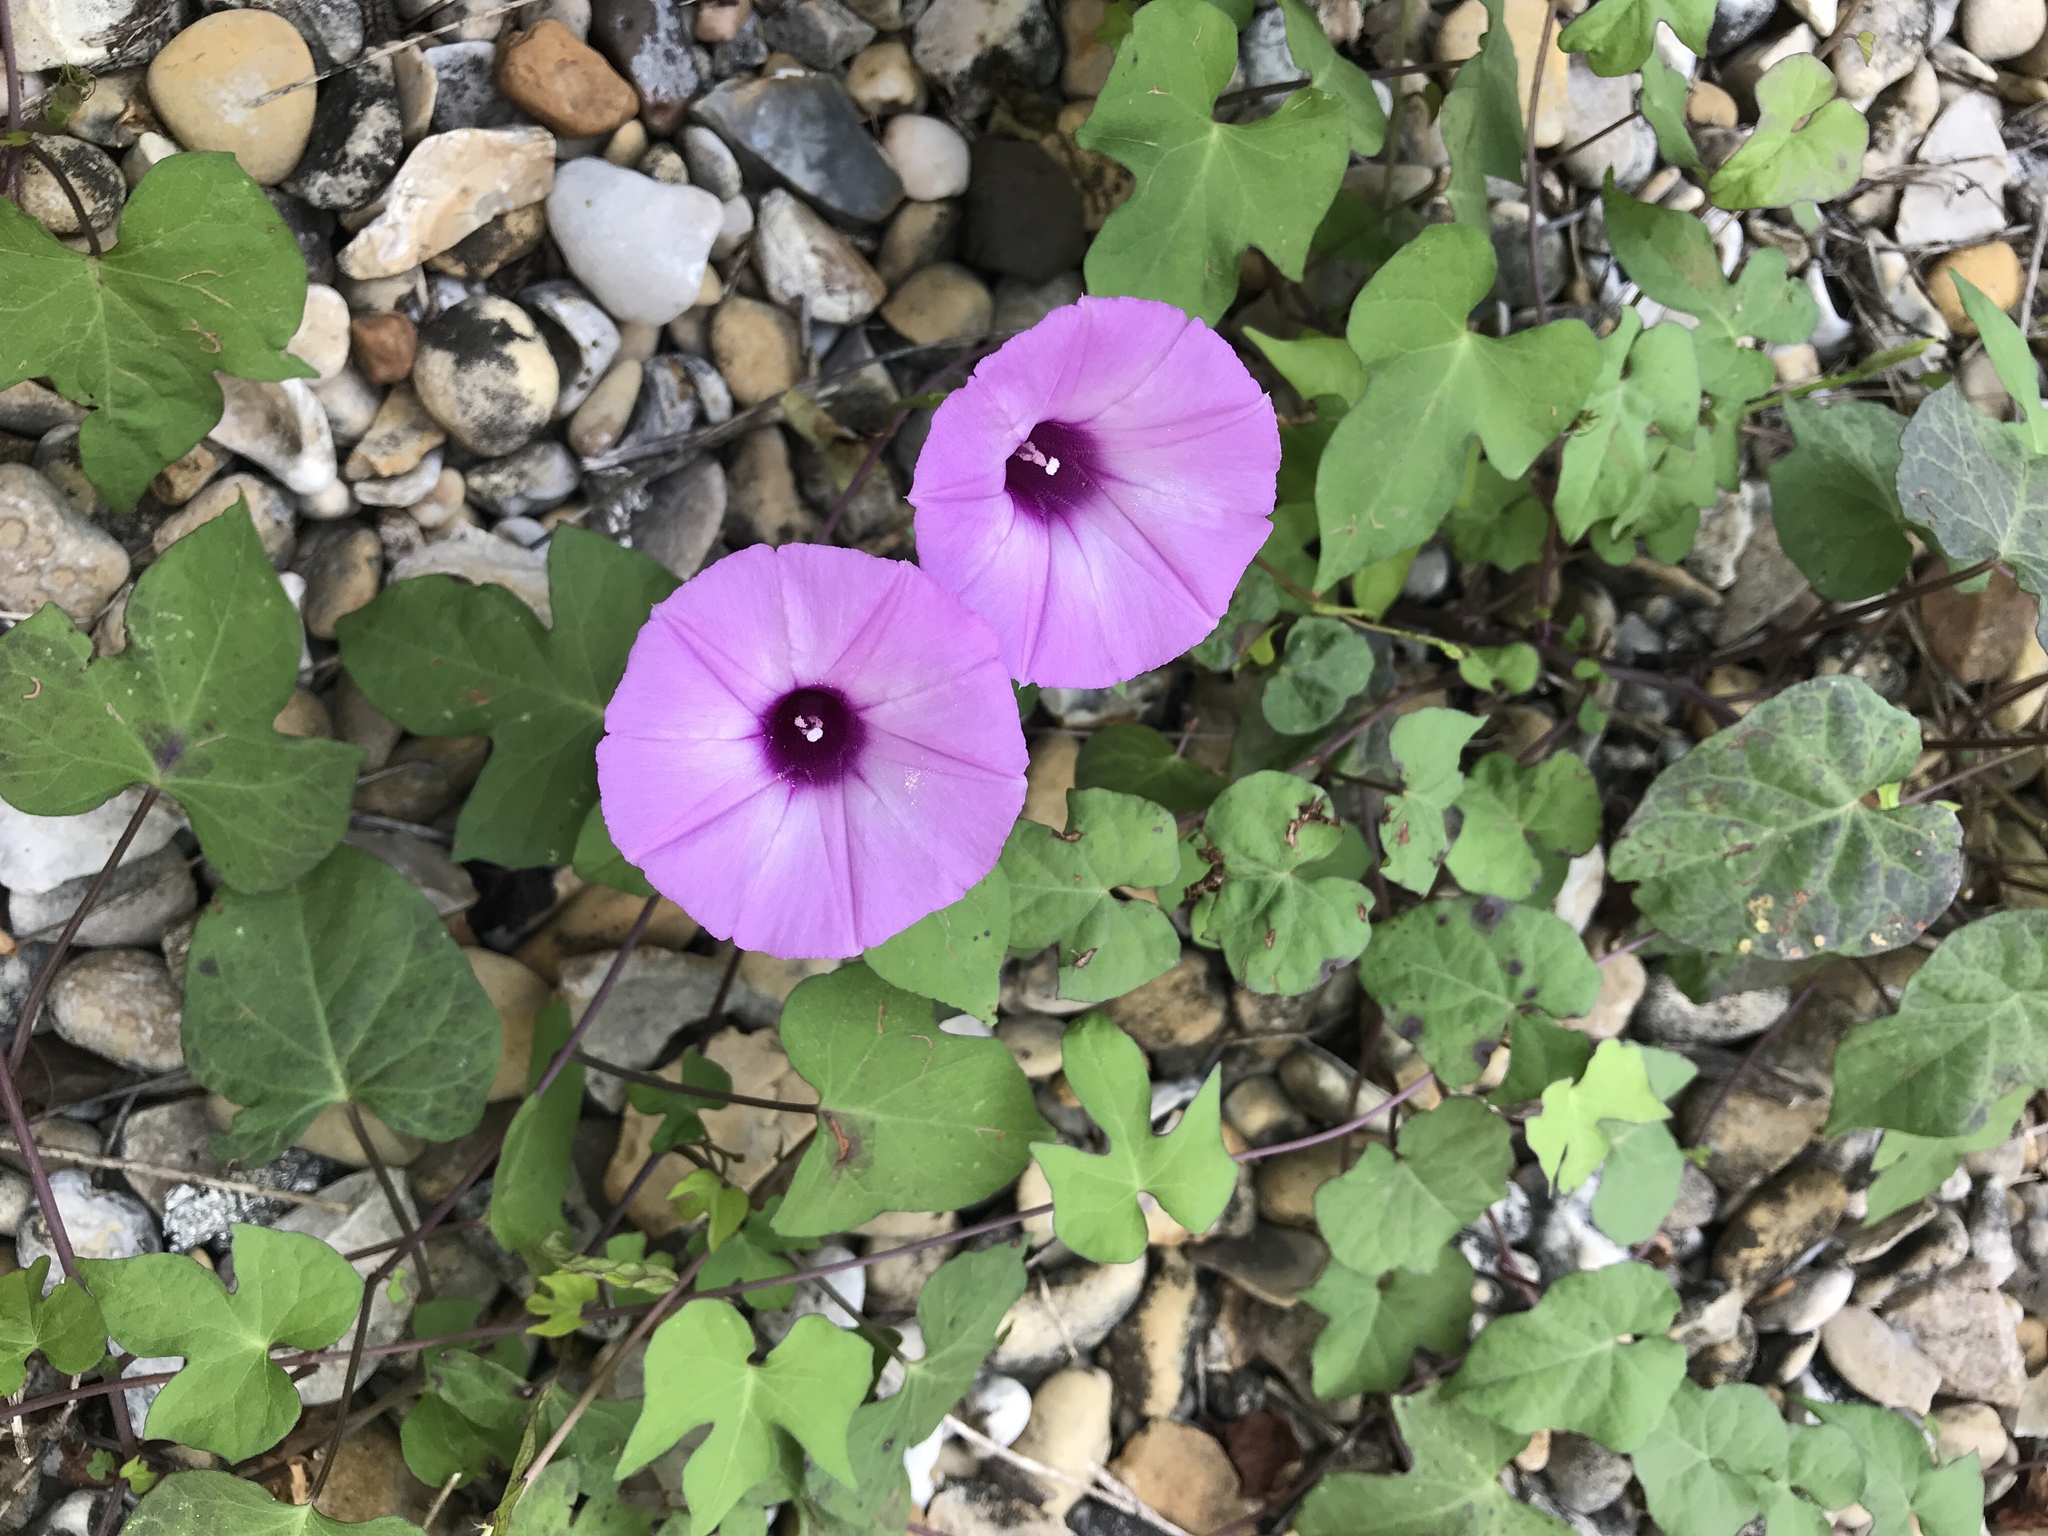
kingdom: Plantae
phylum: Tracheophyta
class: Magnoliopsida
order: Solanales
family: Convolvulaceae
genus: Ipomoea
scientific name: Ipomoea cordatotriloba
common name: Cotton morning glory
